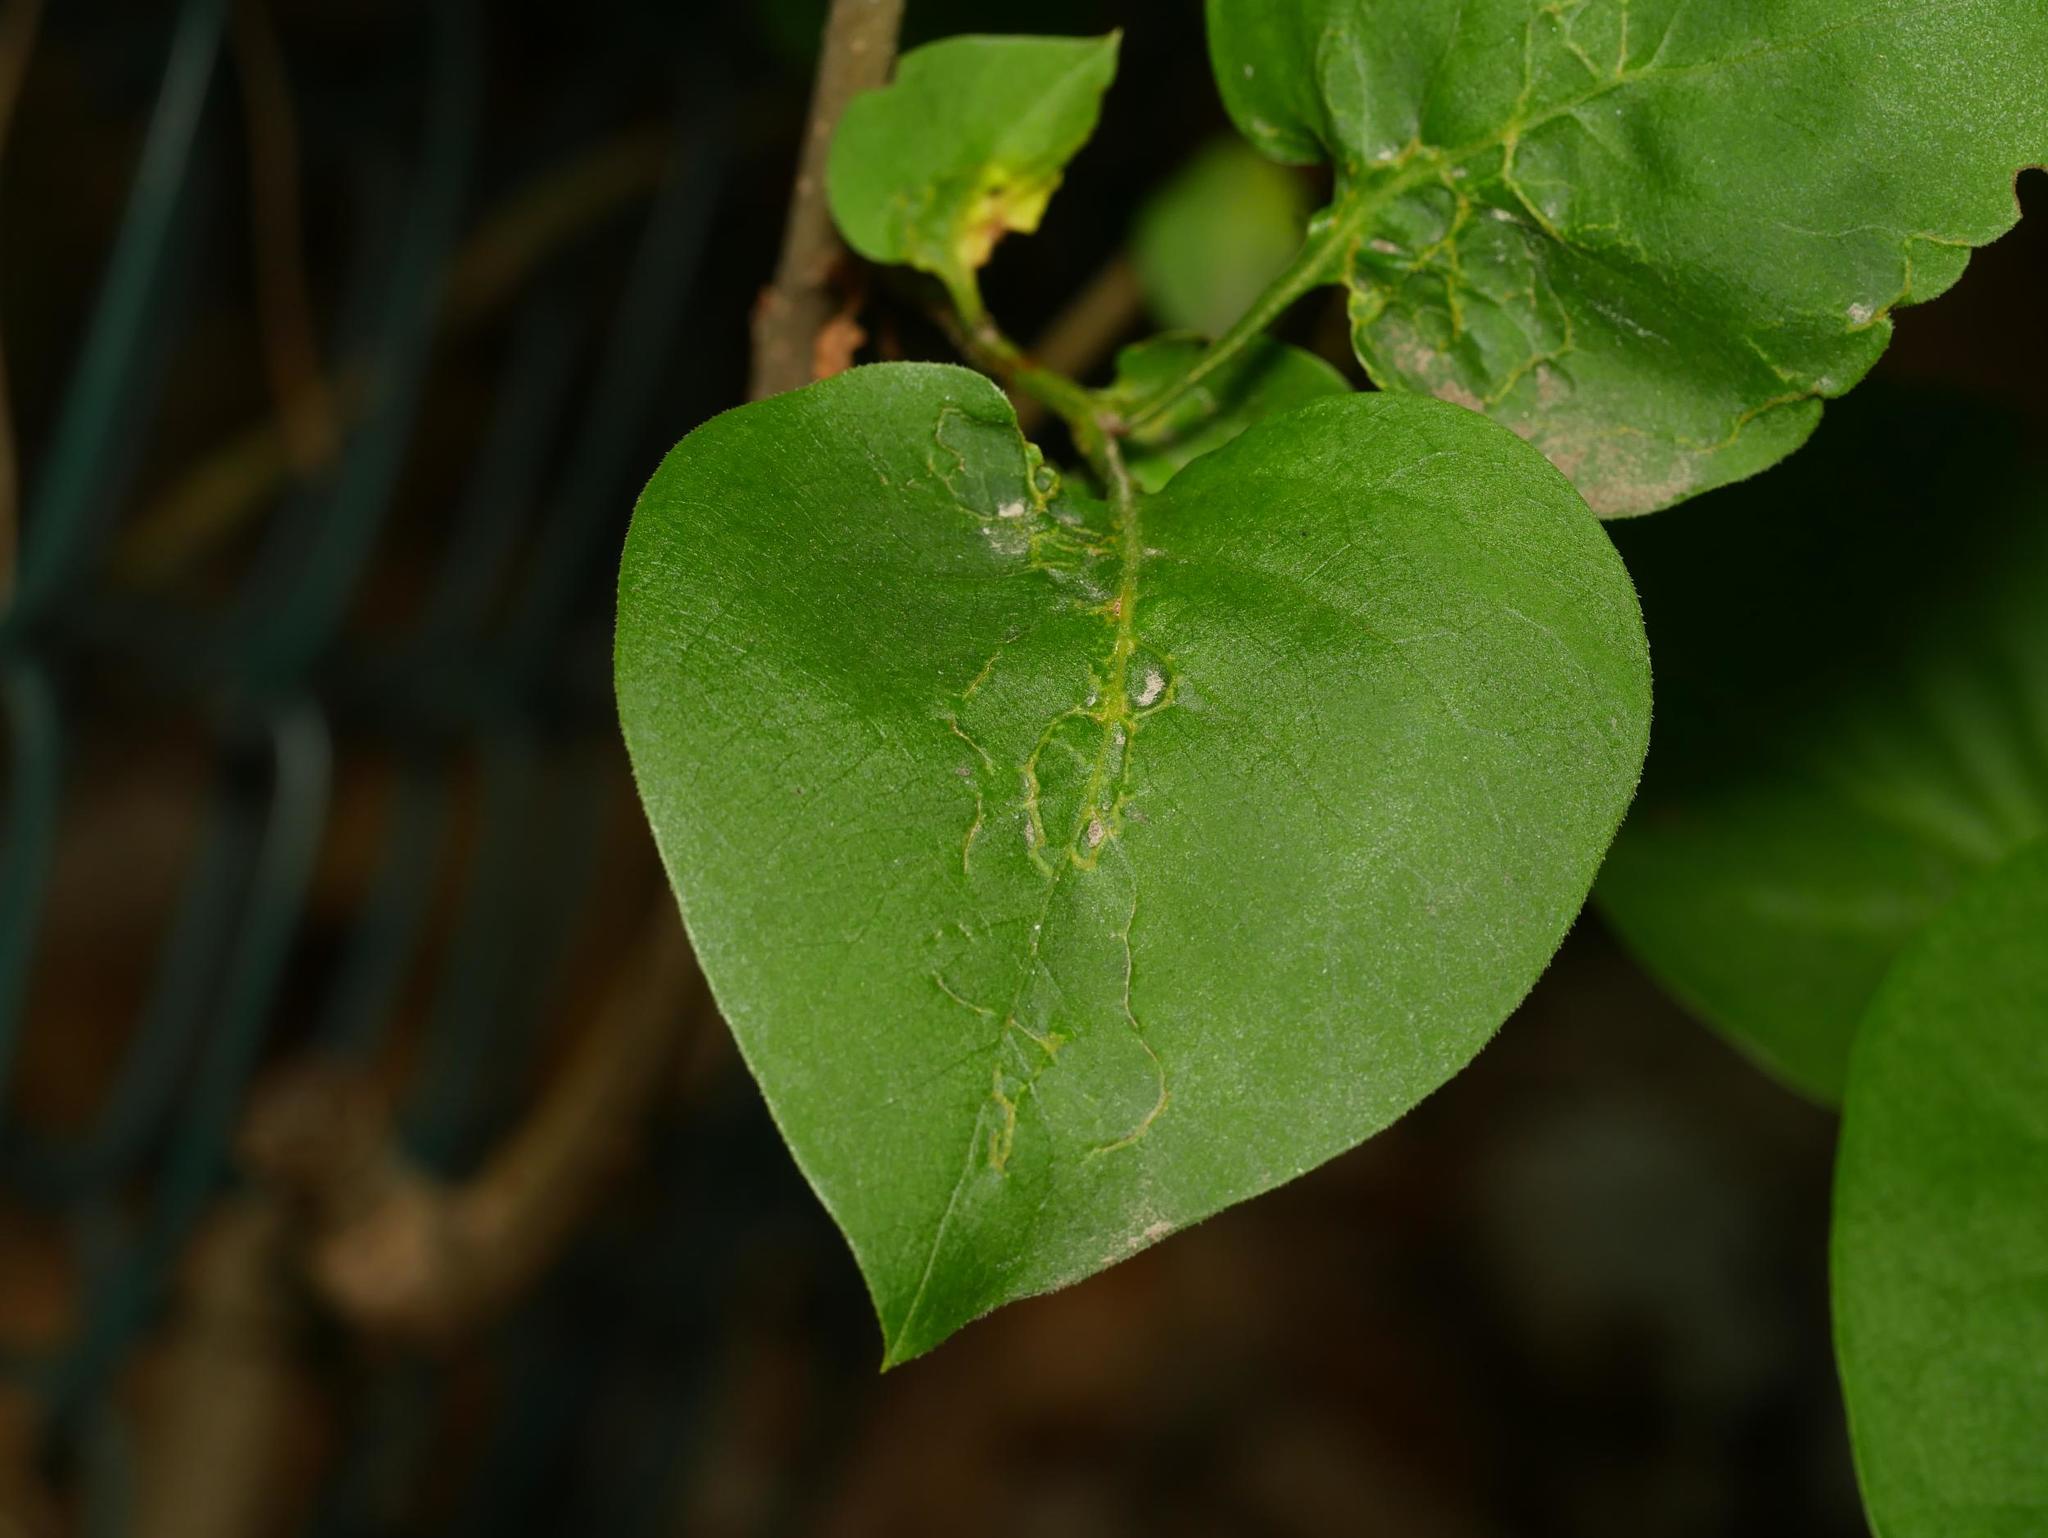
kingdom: Plantae
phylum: Tracheophyta
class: Magnoliopsida
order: Lamiales
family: Oleaceae
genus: Syringa
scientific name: Syringa vulgaris
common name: Common lilac
